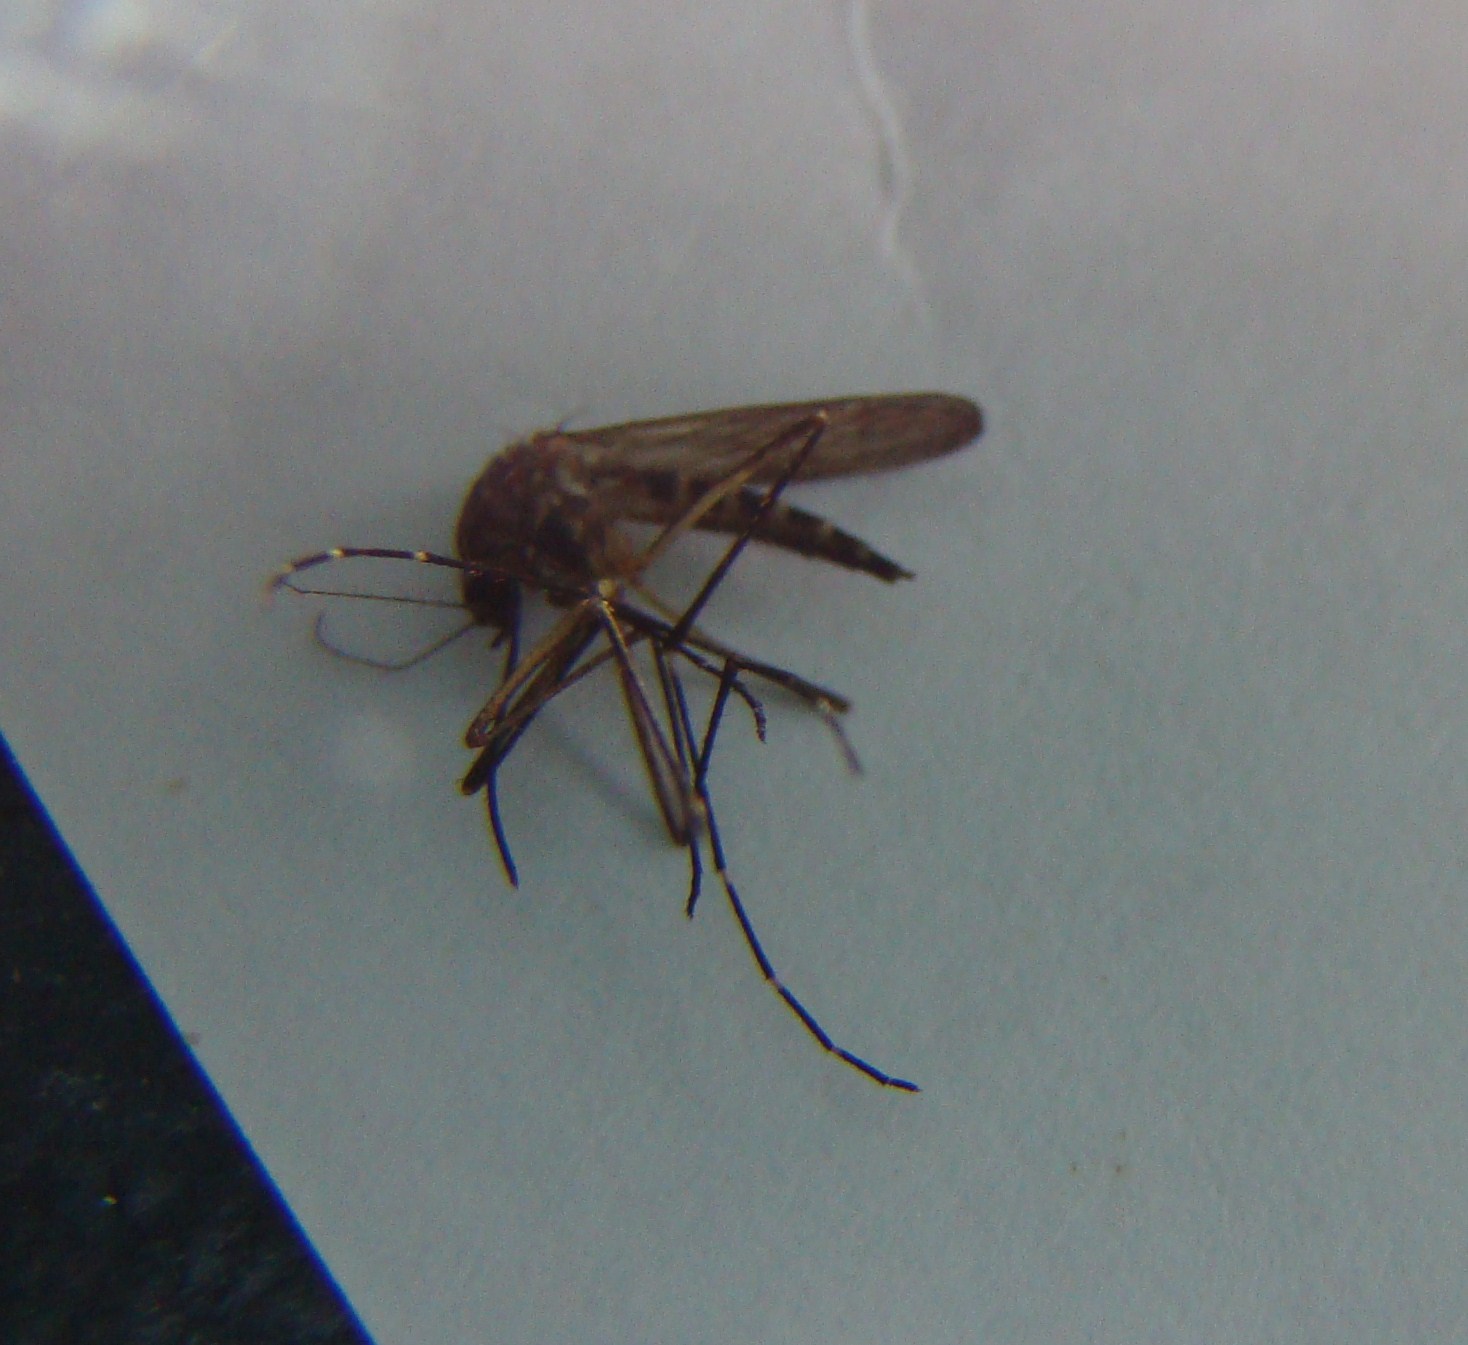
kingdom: Animalia
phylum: Arthropoda
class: Insecta
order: Diptera
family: Culicidae
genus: Aedes
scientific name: Aedes antipodeus
